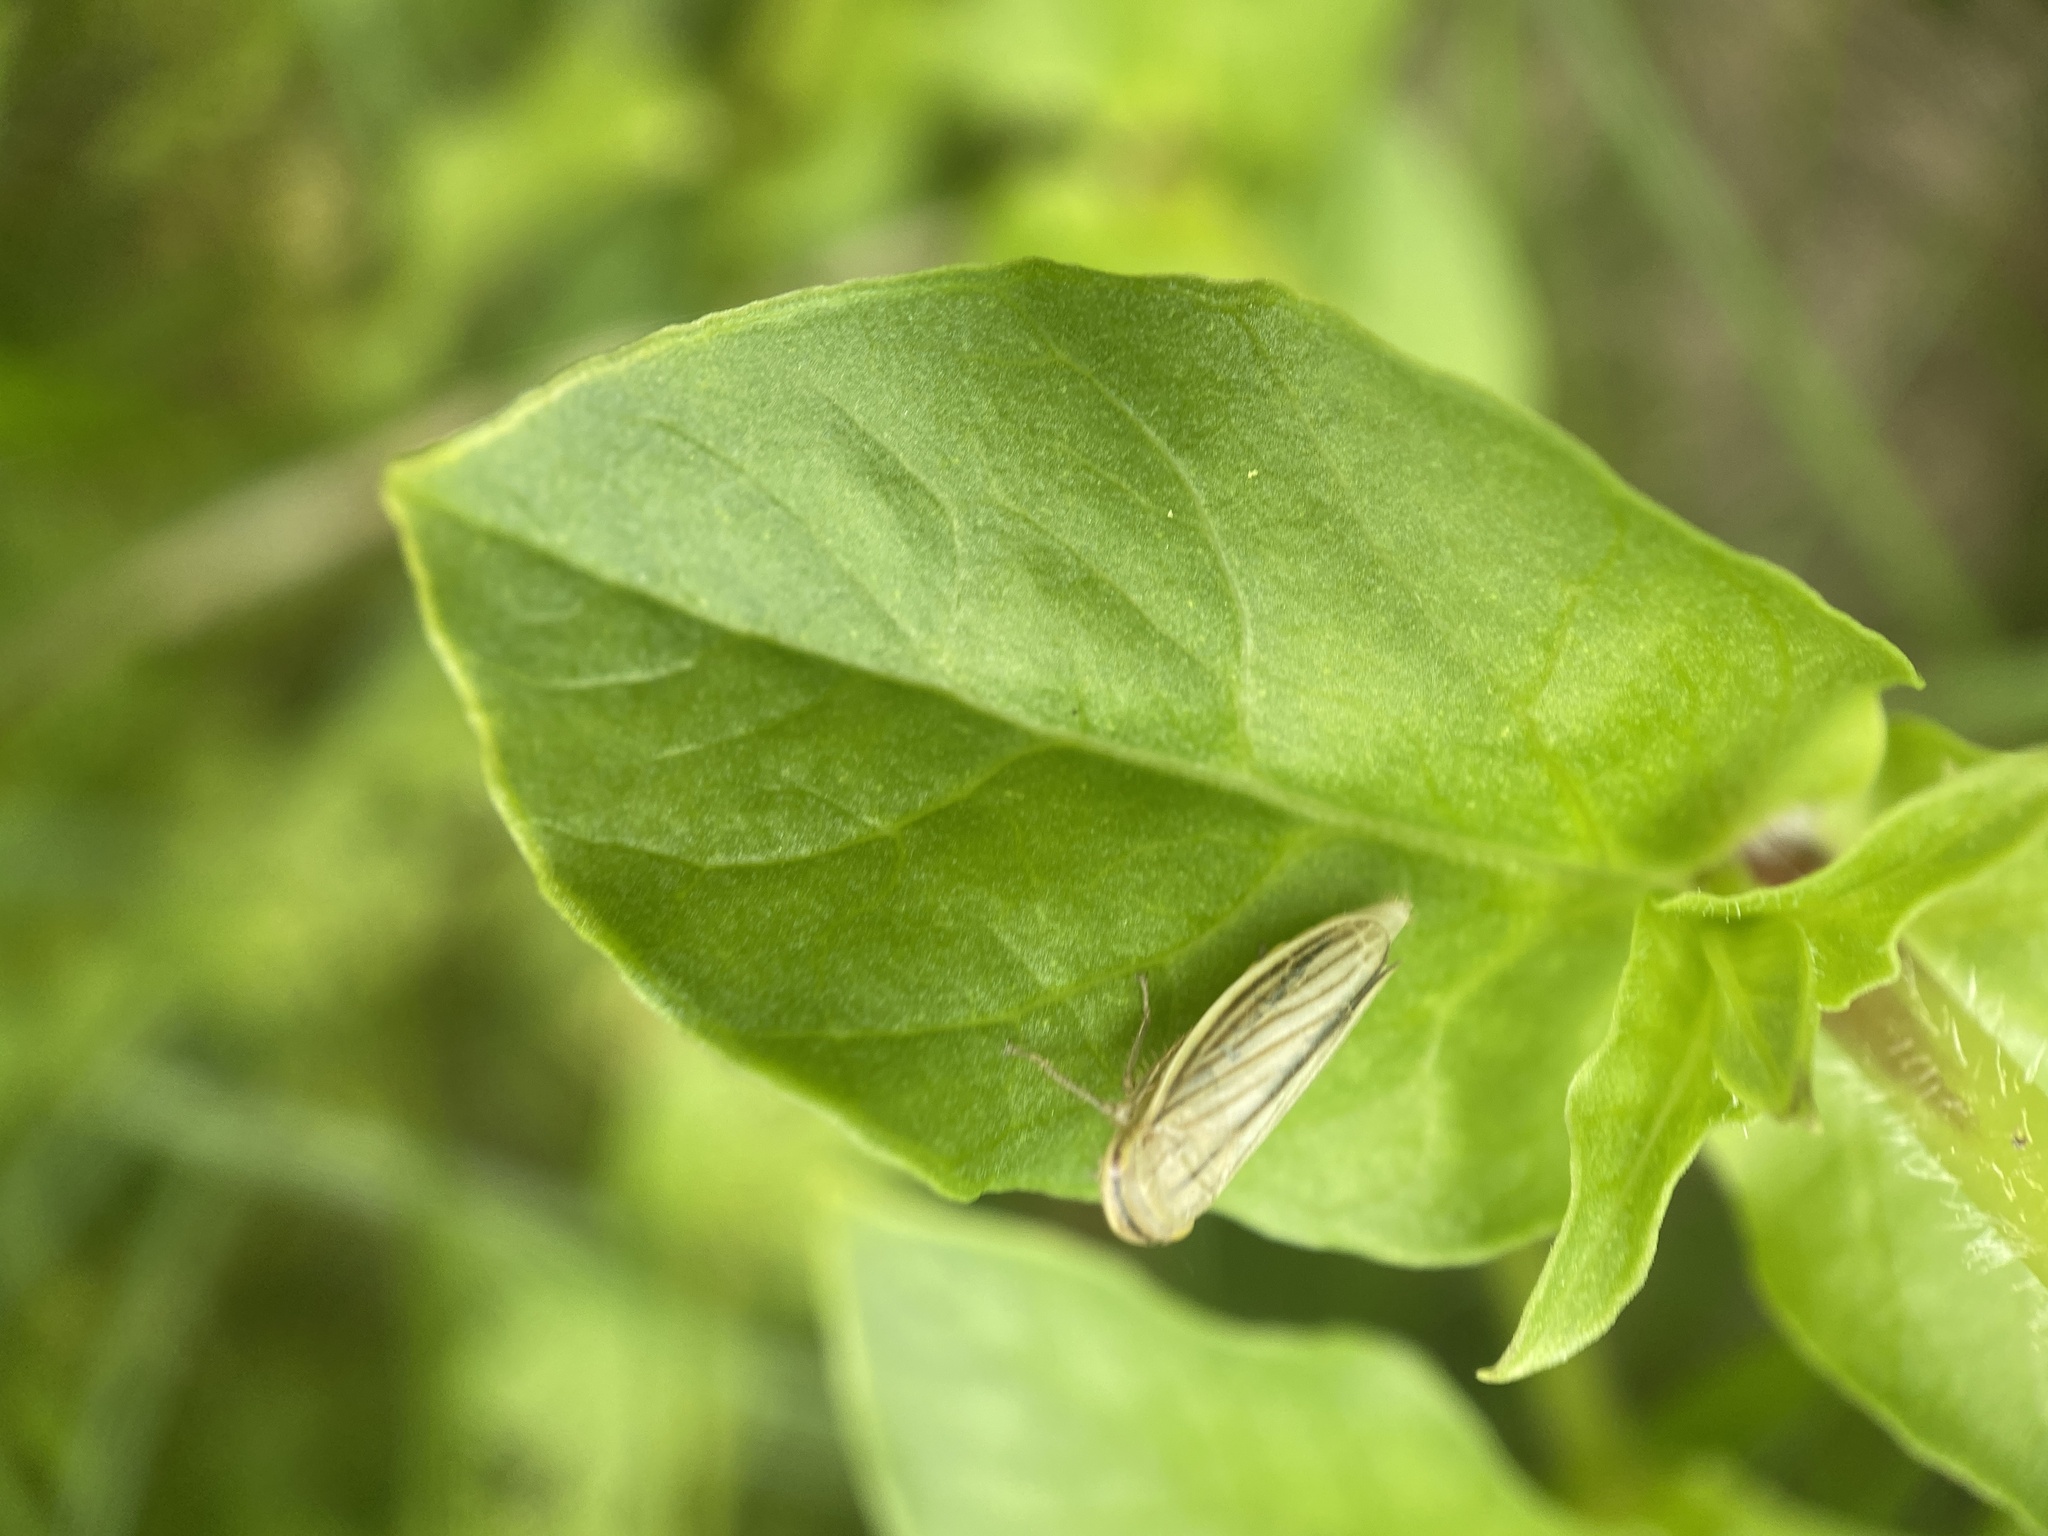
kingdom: Animalia
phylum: Arthropoda
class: Insecta
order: Hemiptera
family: Cicadellidae
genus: Athysanus
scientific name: Athysanus argentarius
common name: Silver leafhopper
